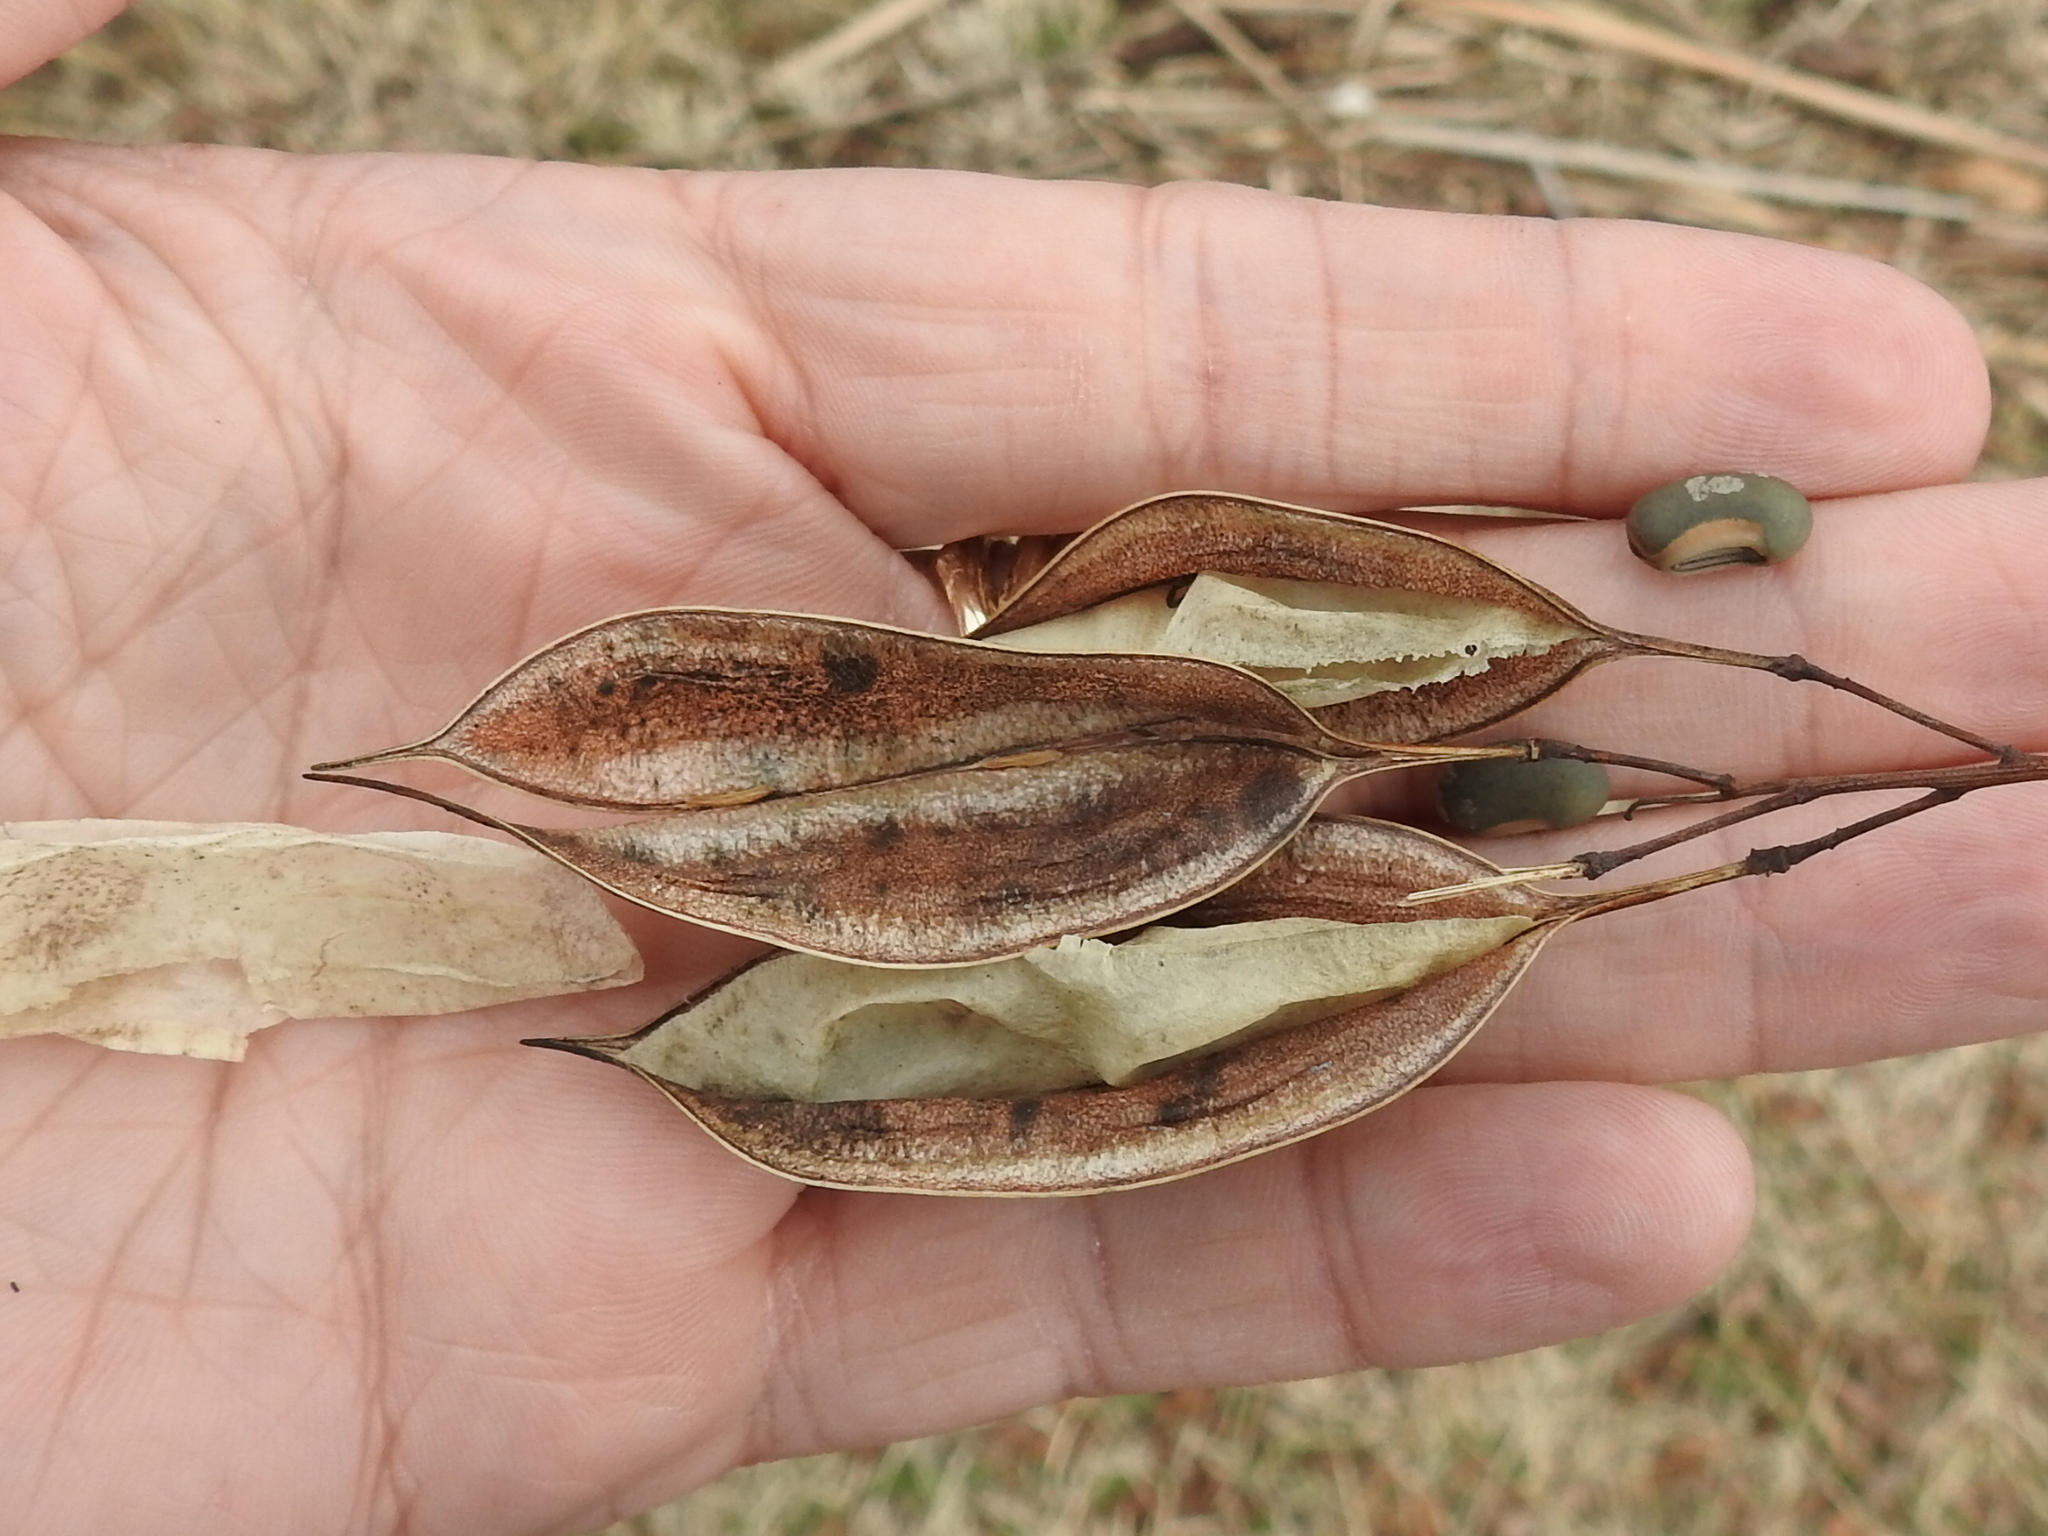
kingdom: Plantae
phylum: Tracheophyta
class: Magnoliopsida
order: Fabales
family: Fabaceae
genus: Sesbania
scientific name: Sesbania vesicaria
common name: Bagpod
